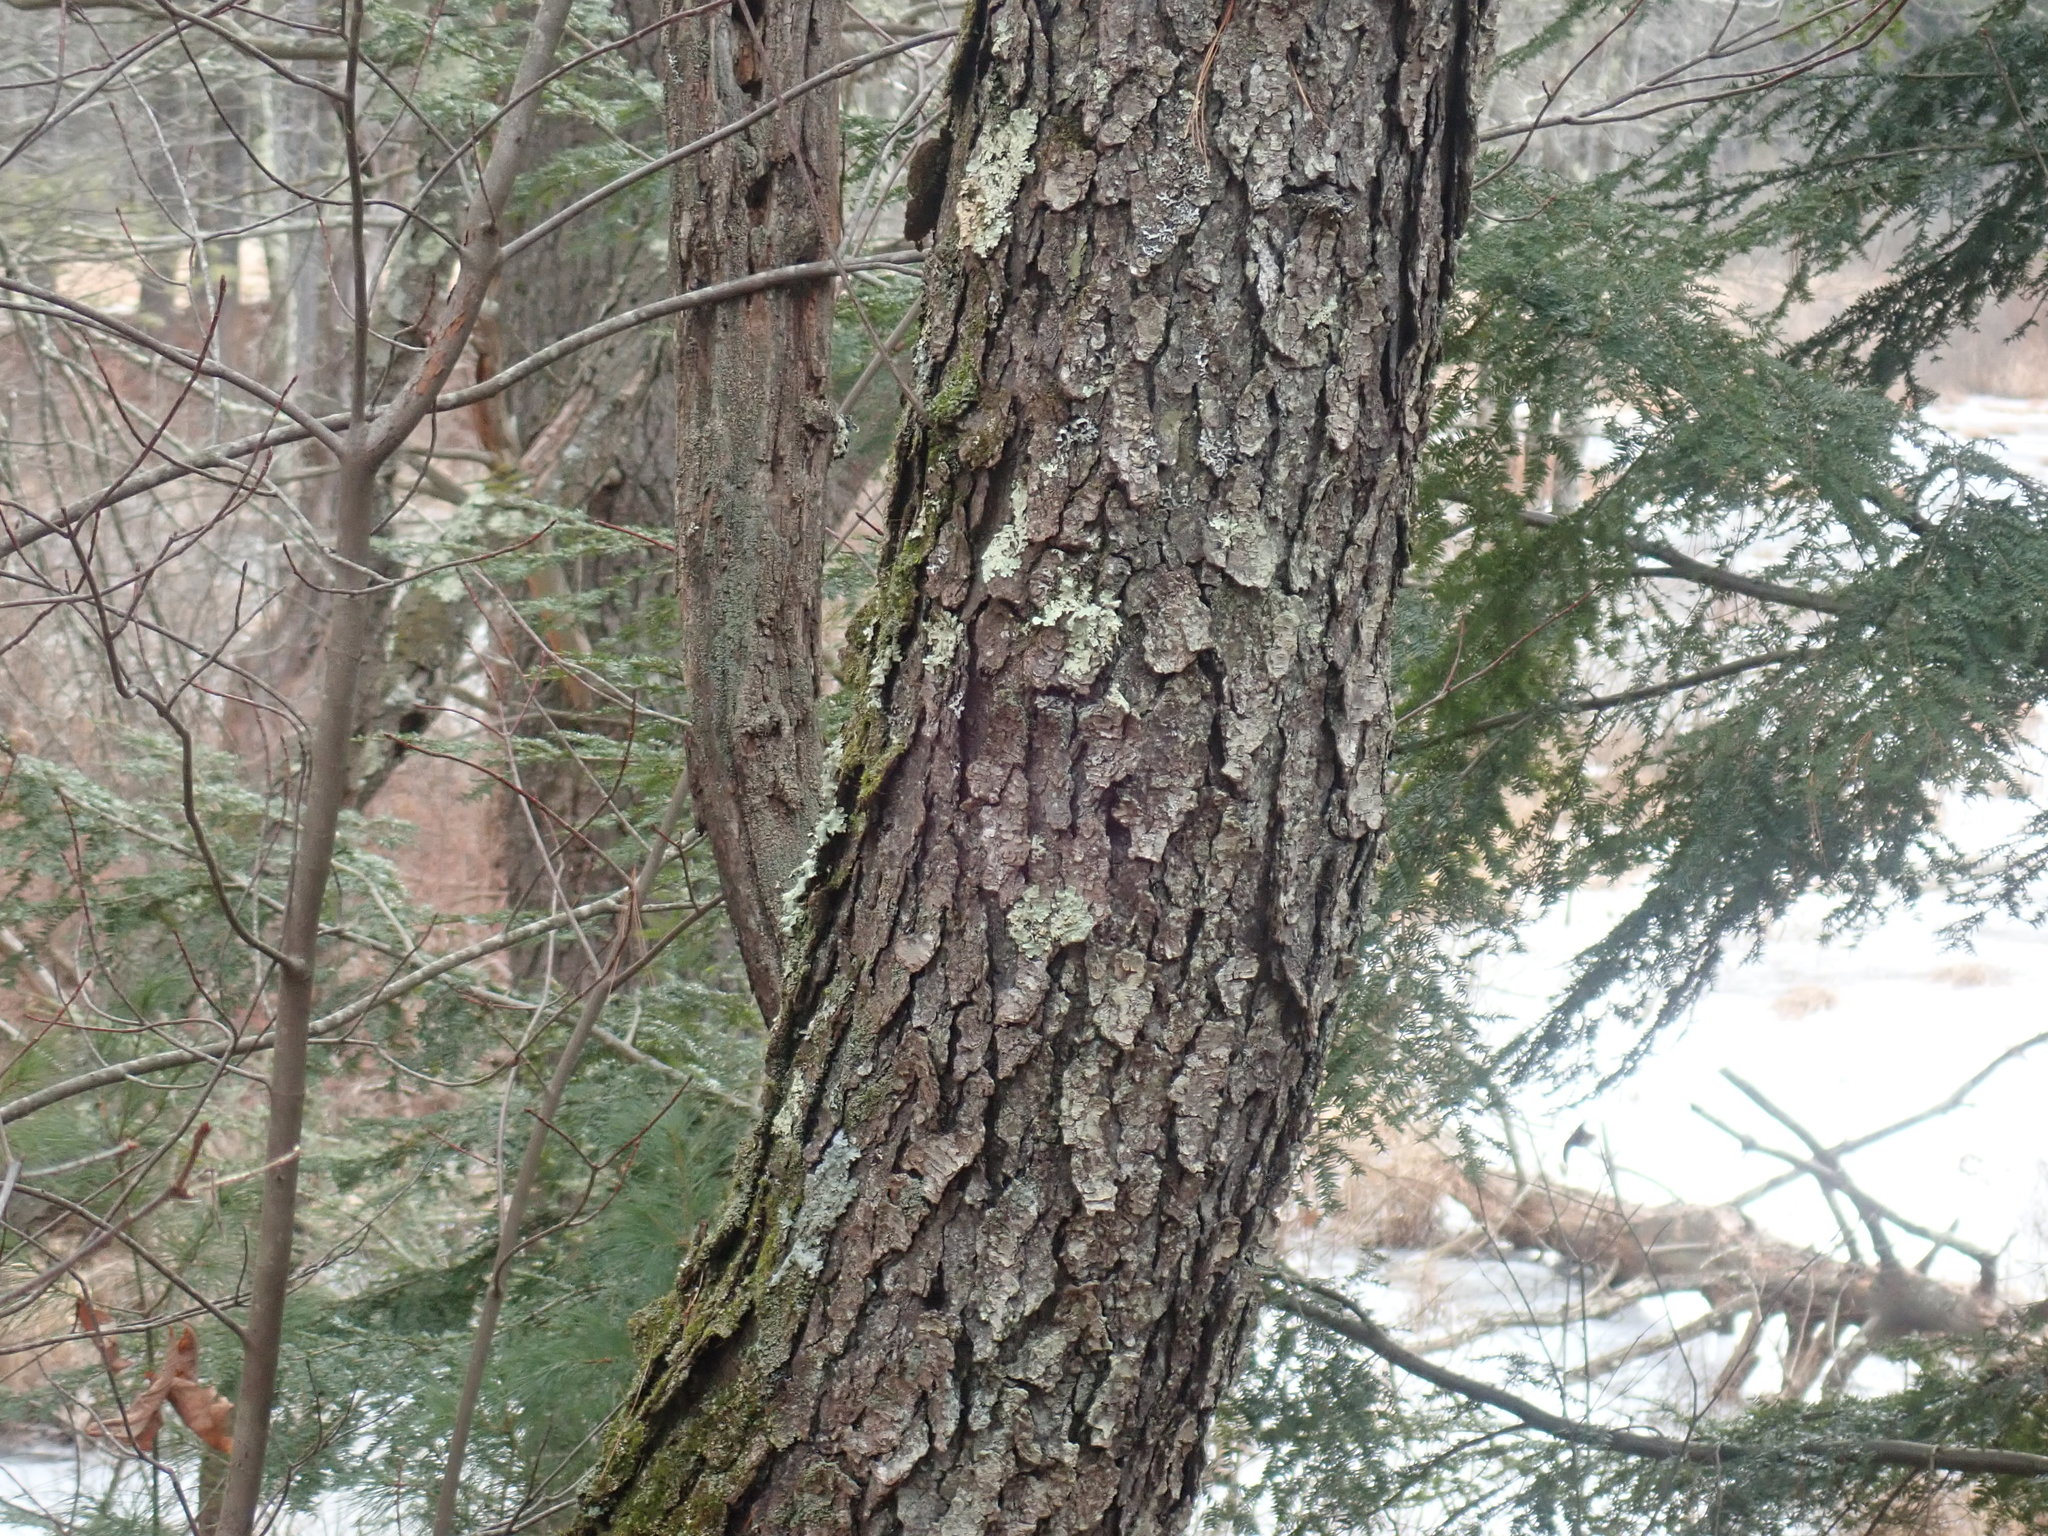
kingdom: Plantae
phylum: Tracheophyta
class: Magnoliopsida
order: Rosales
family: Rosaceae
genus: Prunus
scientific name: Prunus serotina
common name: Black cherry
